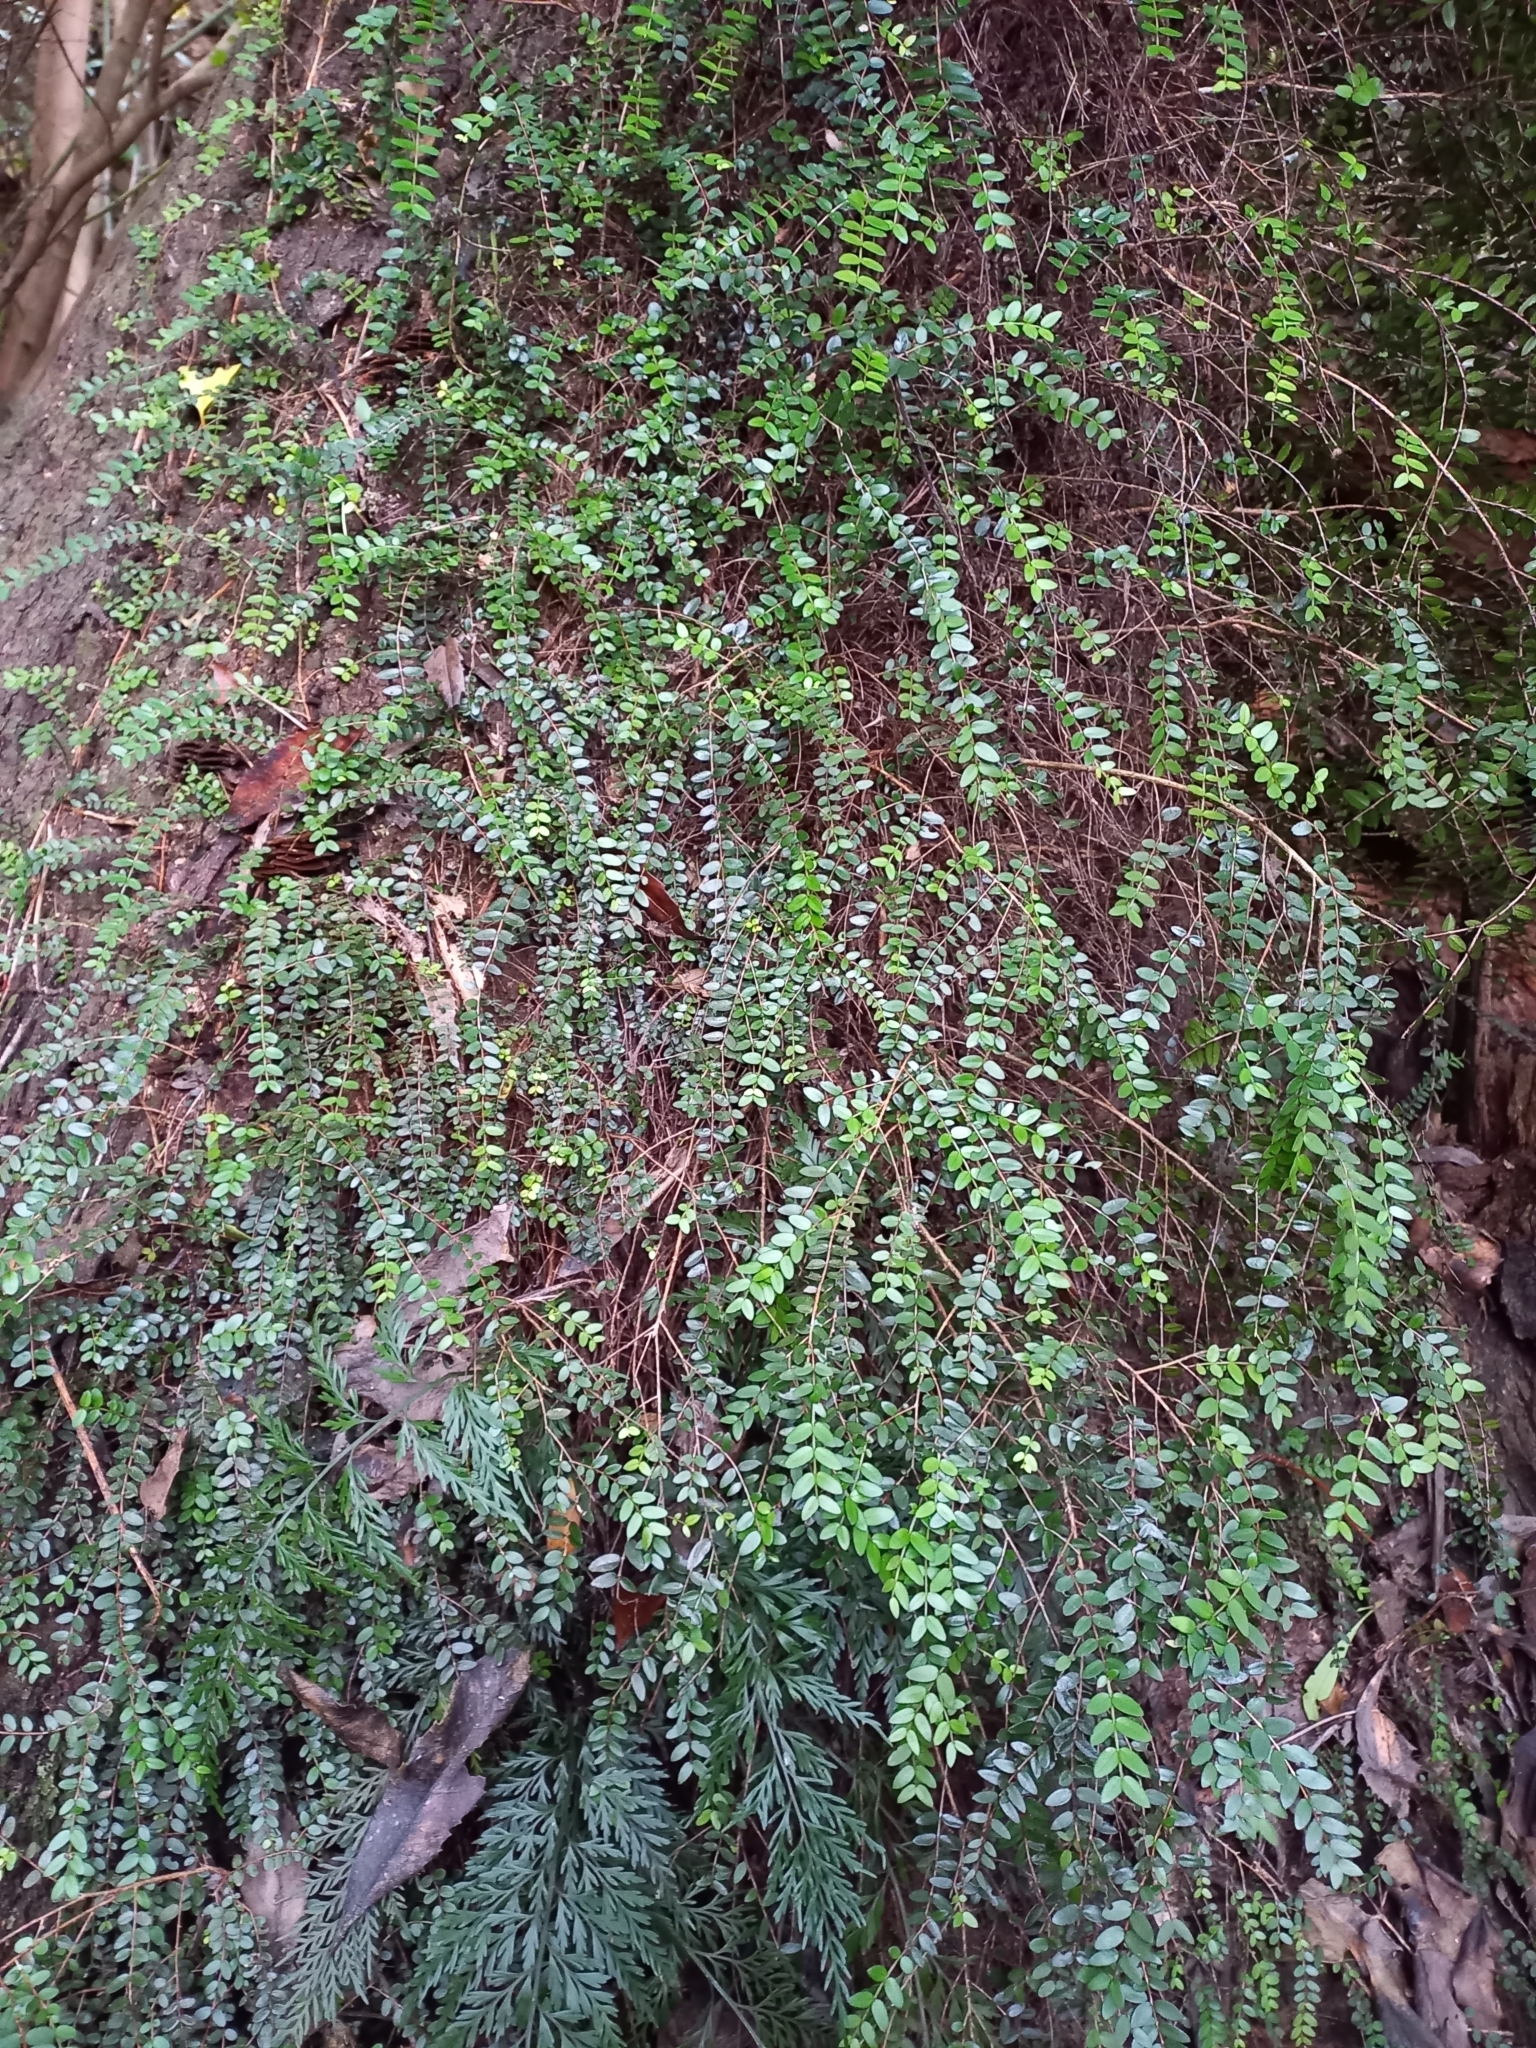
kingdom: Plantae
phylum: Tracheophyta
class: Magnoliopsida
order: Myrtales
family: Myrtaceae
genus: Metrosideros
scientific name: Metrosideros diffusa
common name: Small ratavine
